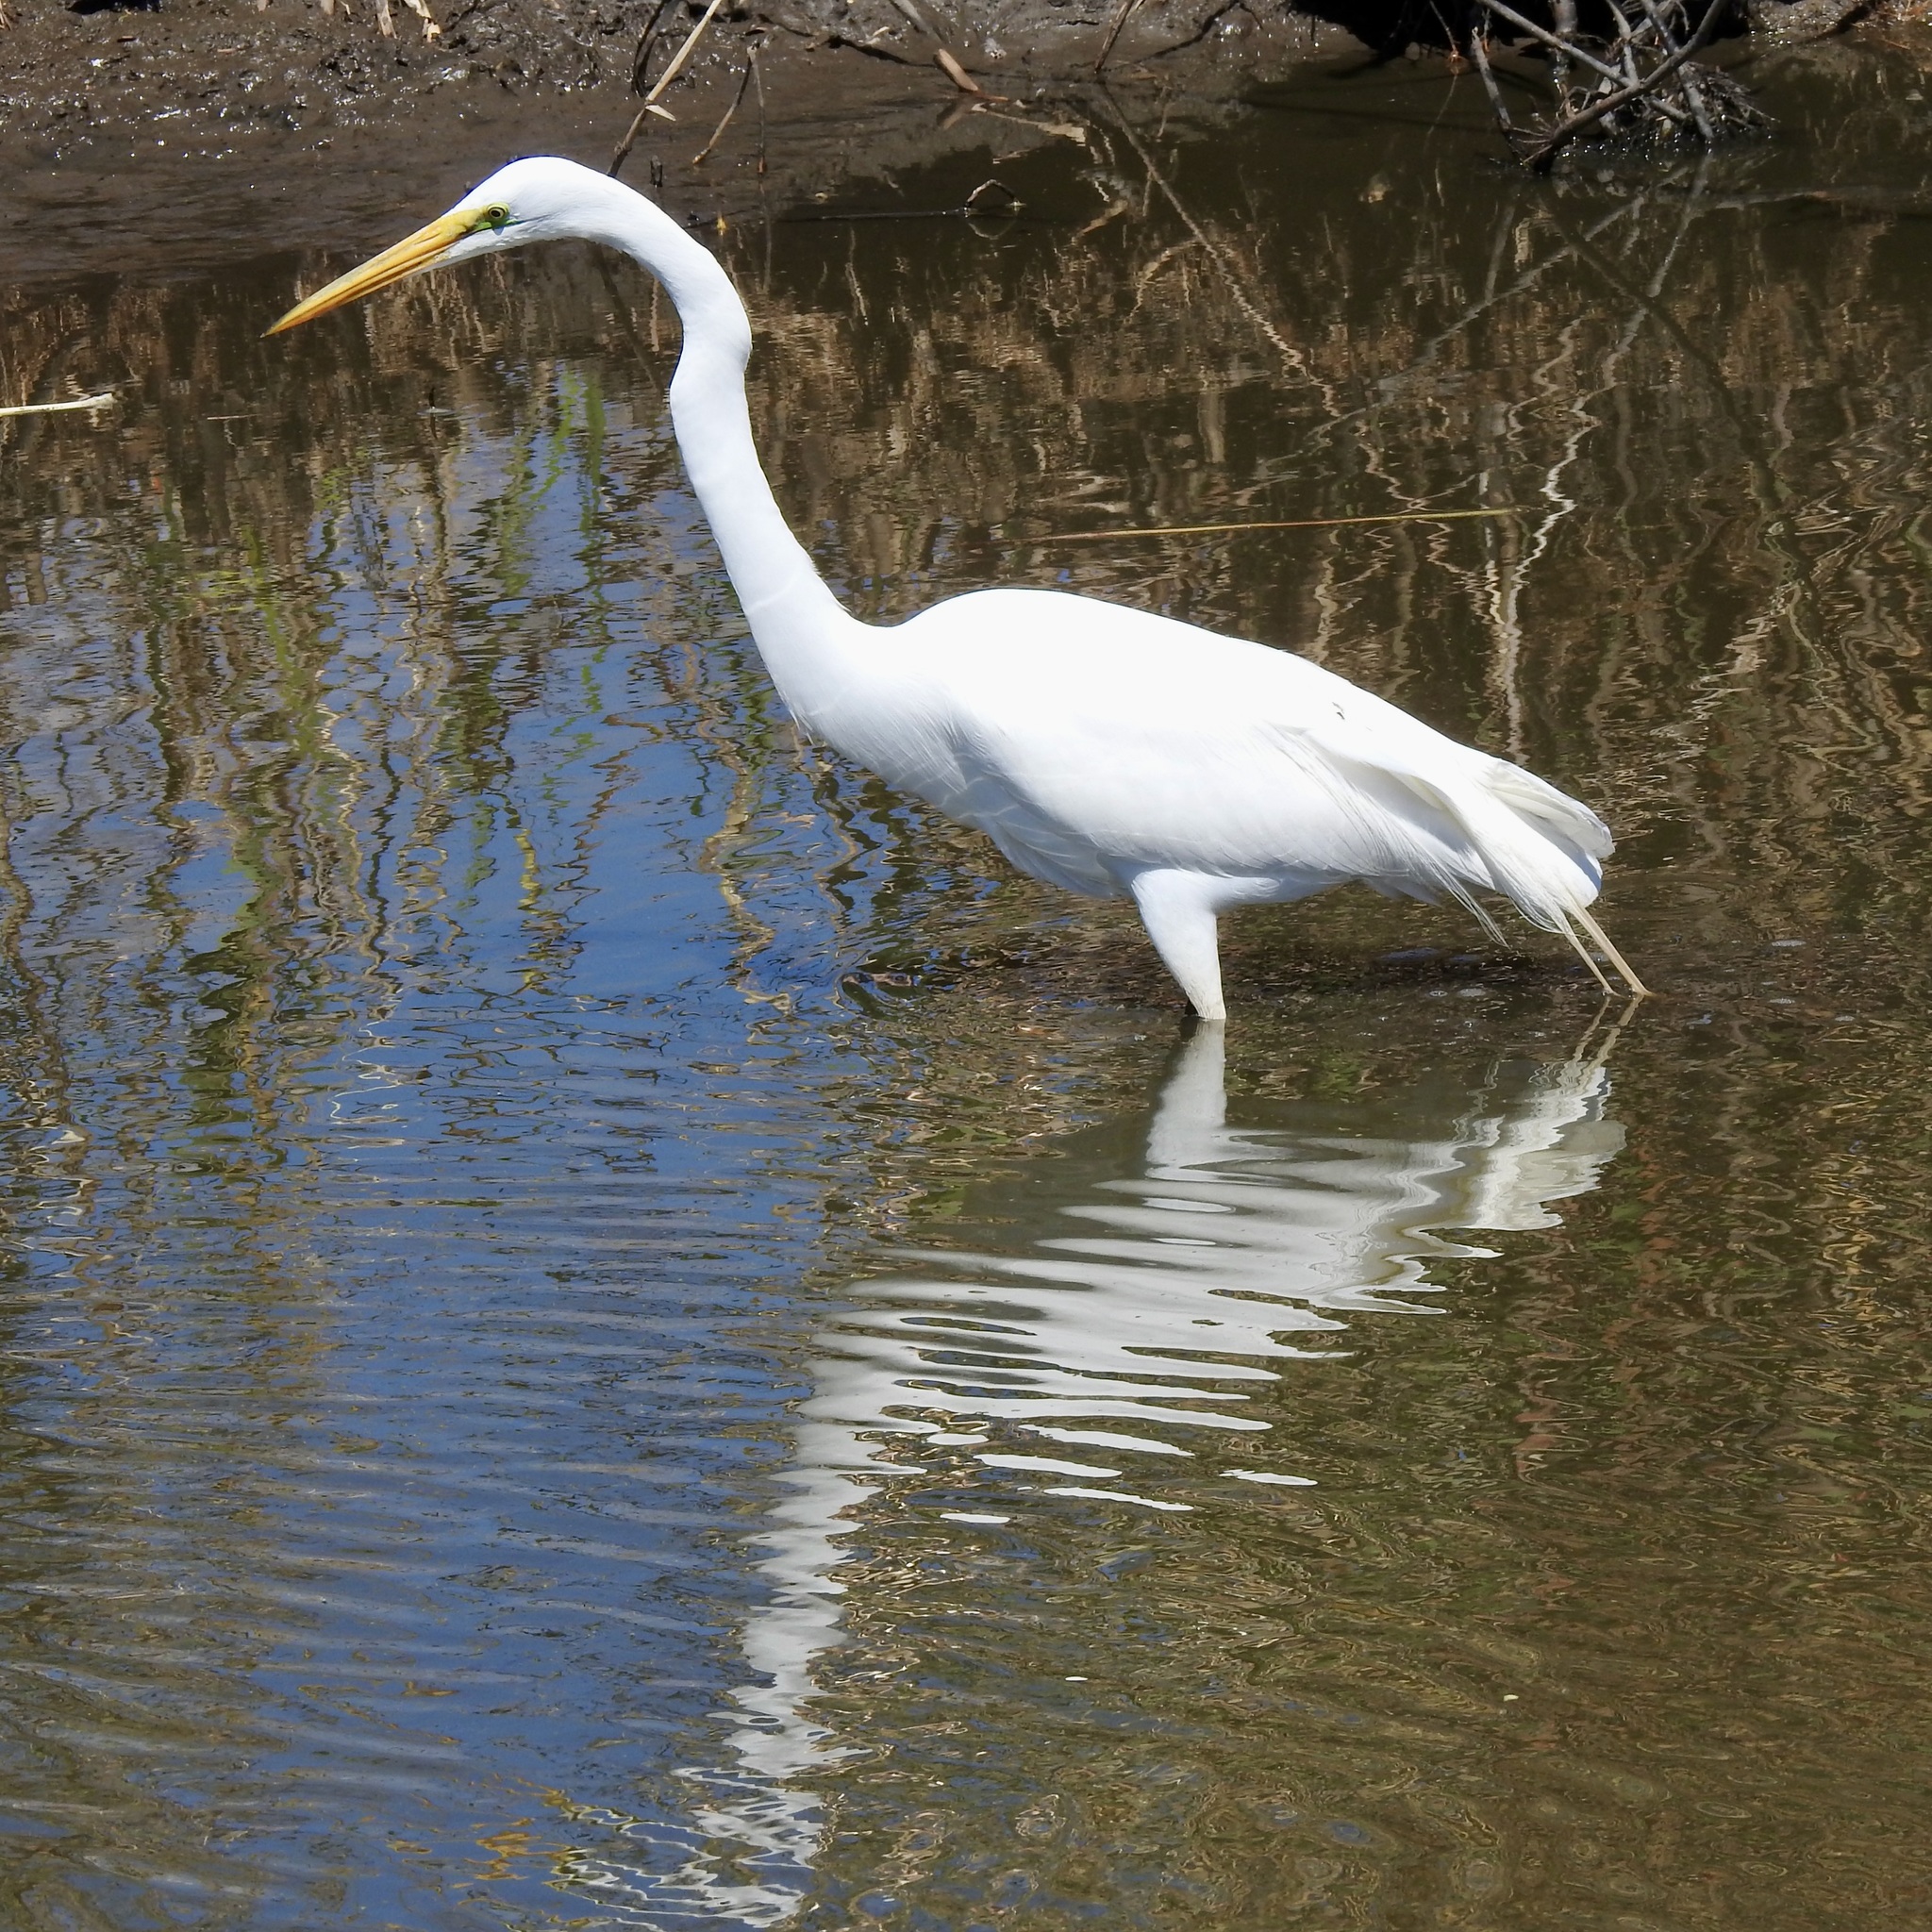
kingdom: Animalia
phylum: Chordata
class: Aves
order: Pelecaniformes
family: Ardeidae
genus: Ardea
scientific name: Ardea alba
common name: Great egret
